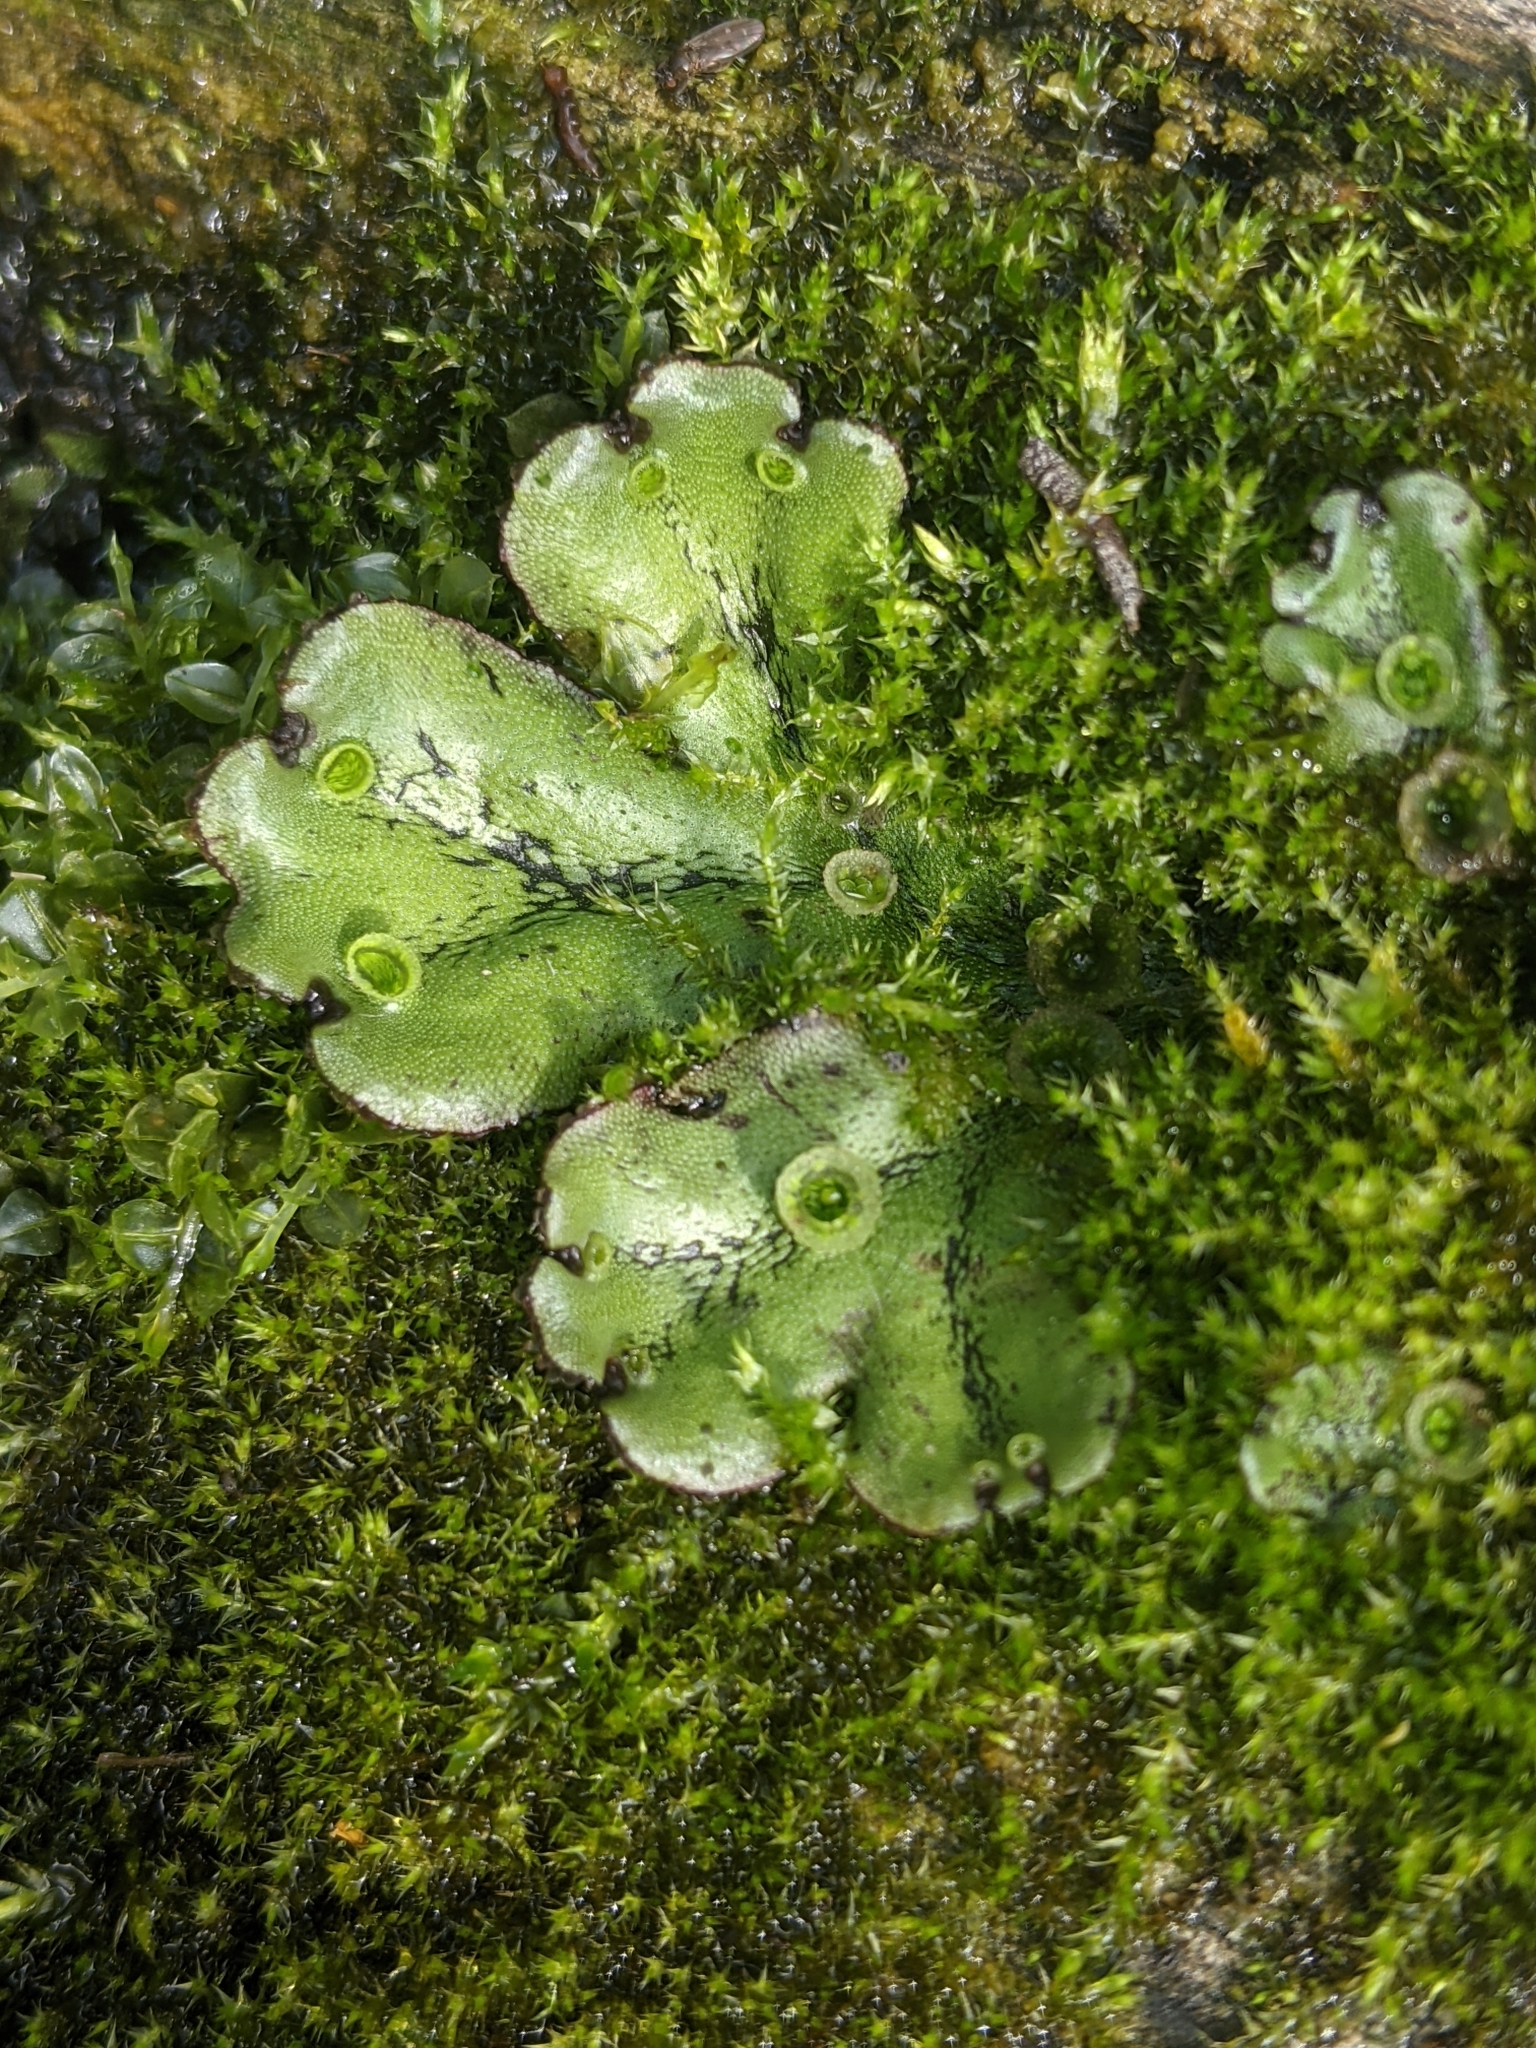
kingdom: Plantae
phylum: Marchantiophyta
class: Marchantiopsida
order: Marchantiales
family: Marchantiaceae
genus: Marchantia
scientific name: Marchantia polymorpha
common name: Common liverwort
